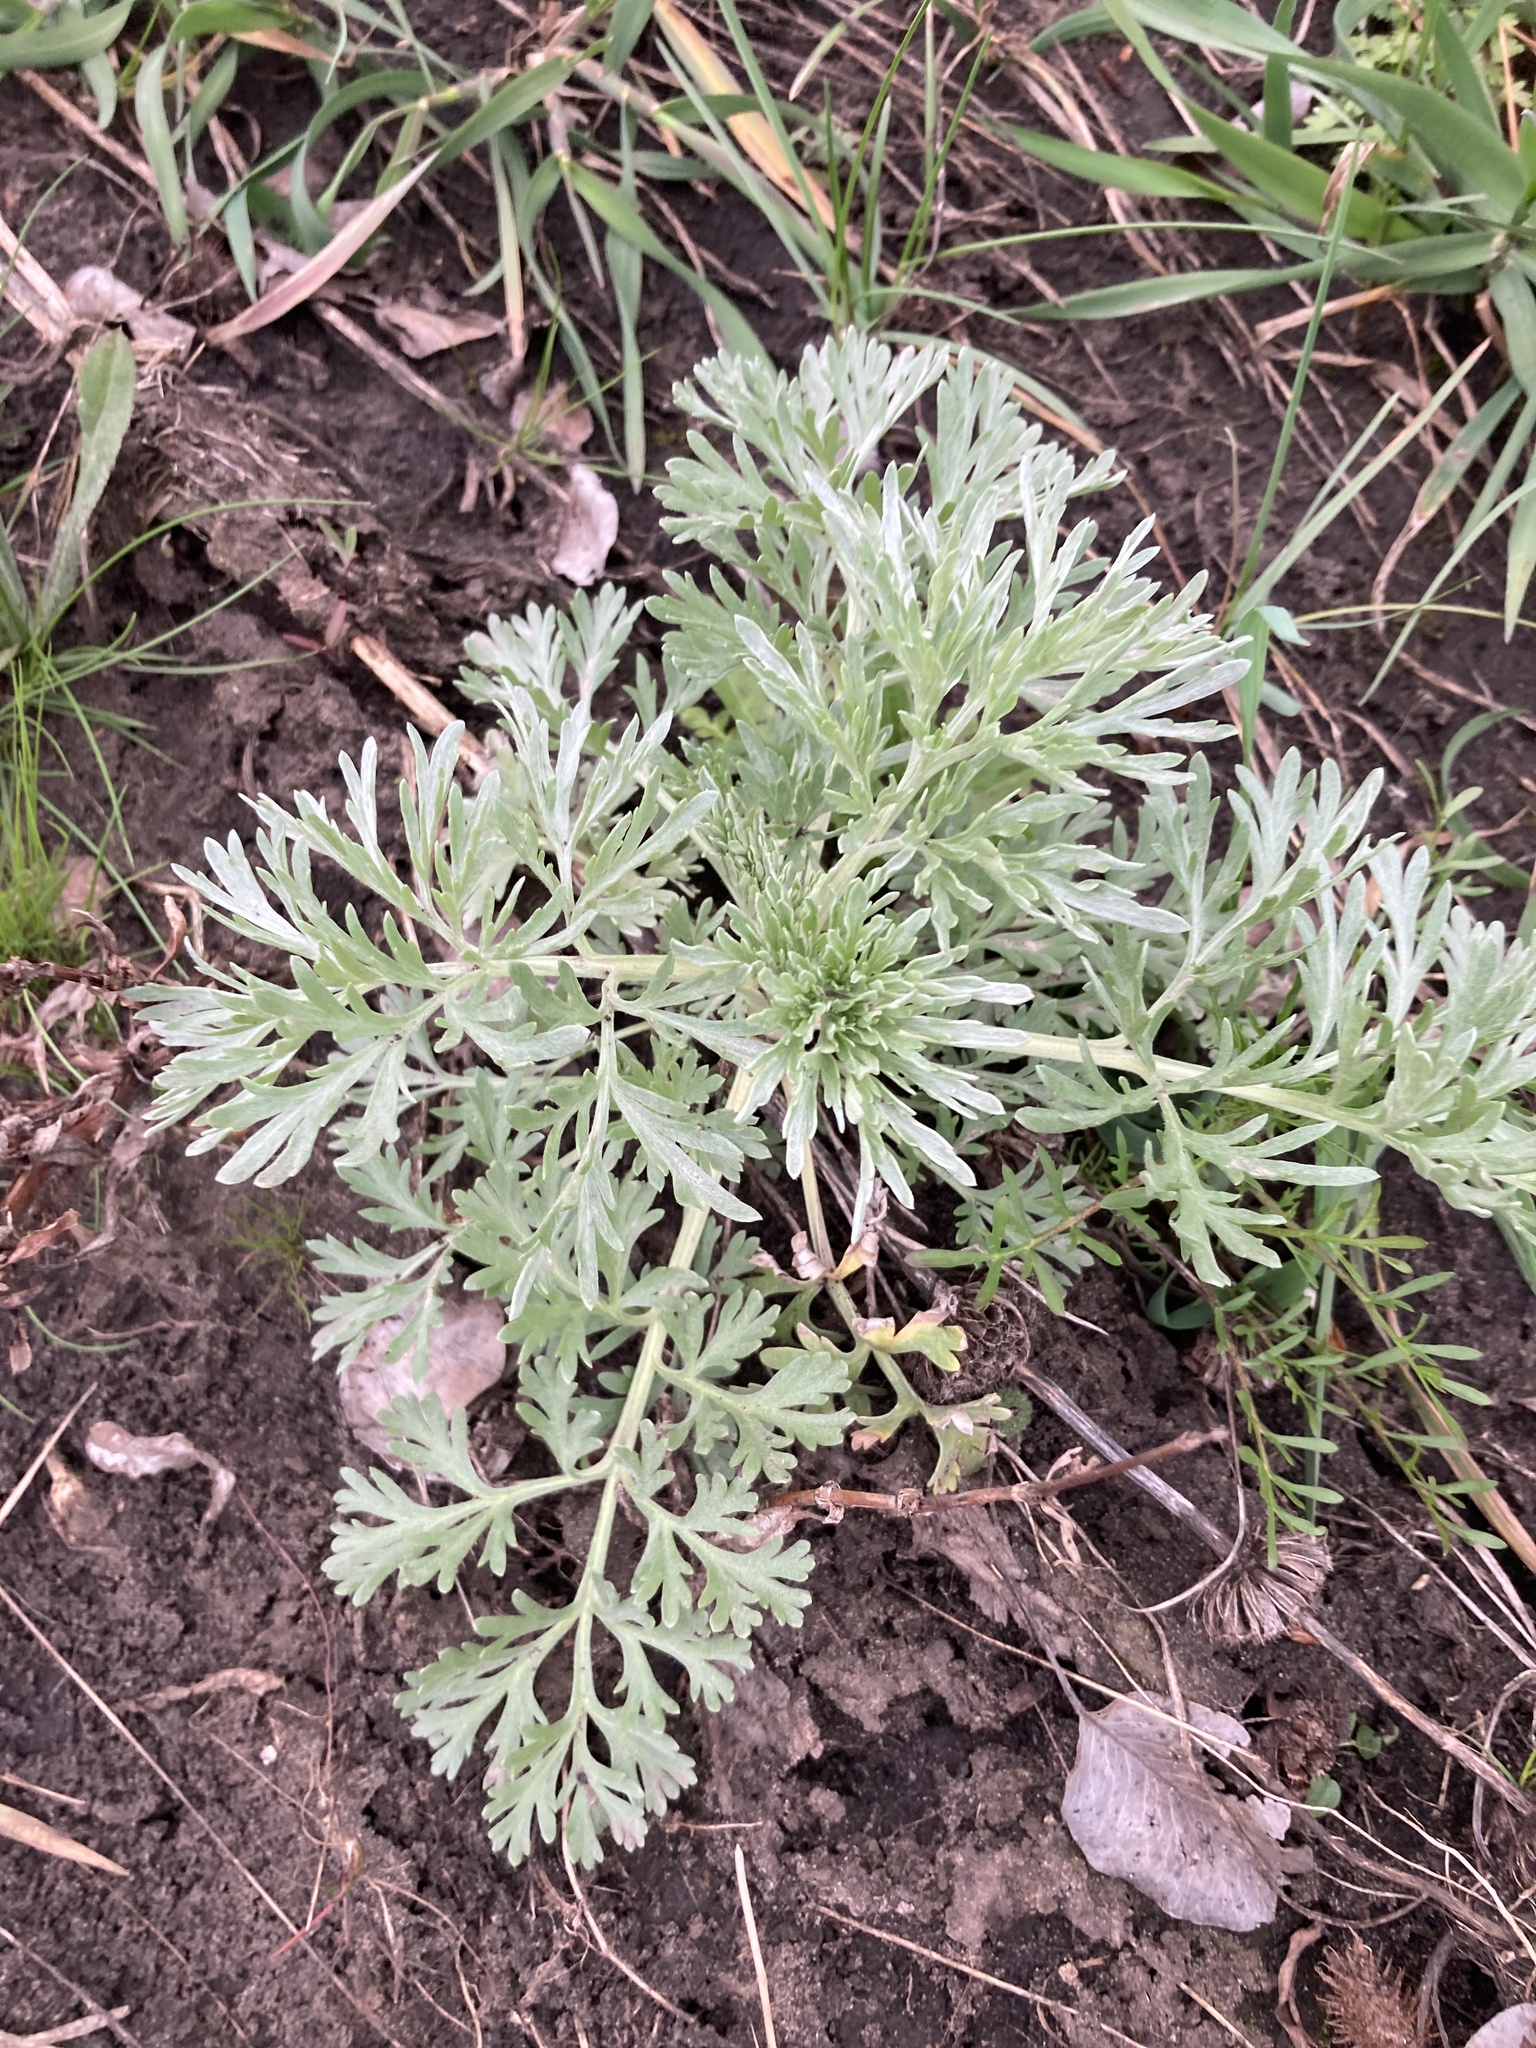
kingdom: Plantae
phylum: Tracheophyta
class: Magnoliopsida
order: Asterales
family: Asteraceae
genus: Artemisia
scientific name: Artemisia absinthium
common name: Wormwood
